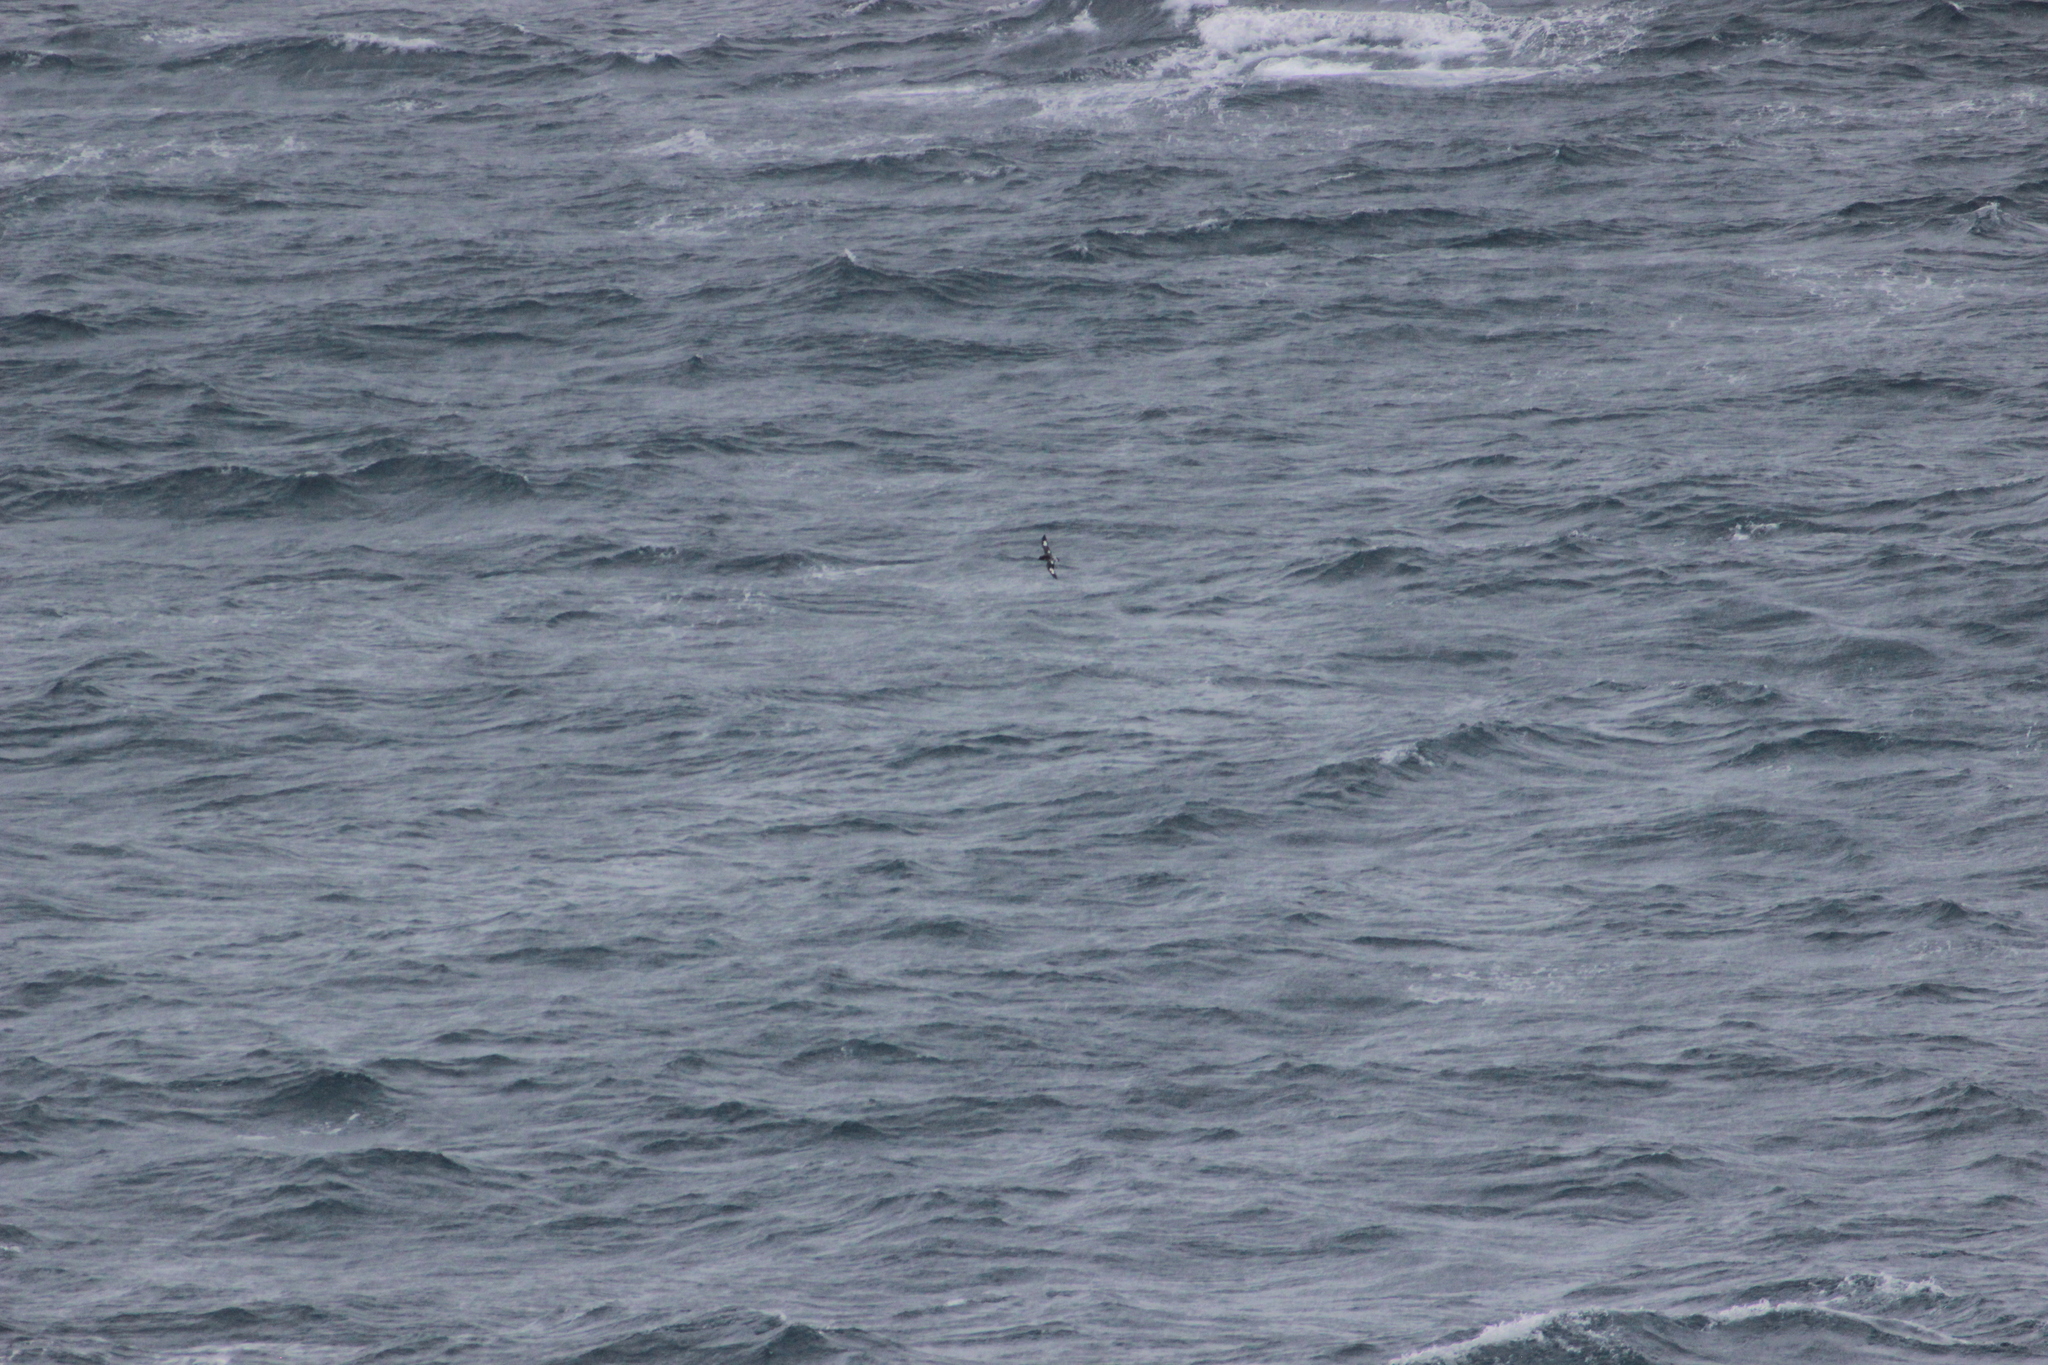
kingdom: Animalia
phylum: Chordata
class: Aves
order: Procellariiformes
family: Procellariidae
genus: Daption
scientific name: Daption capense
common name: Cape petrel
